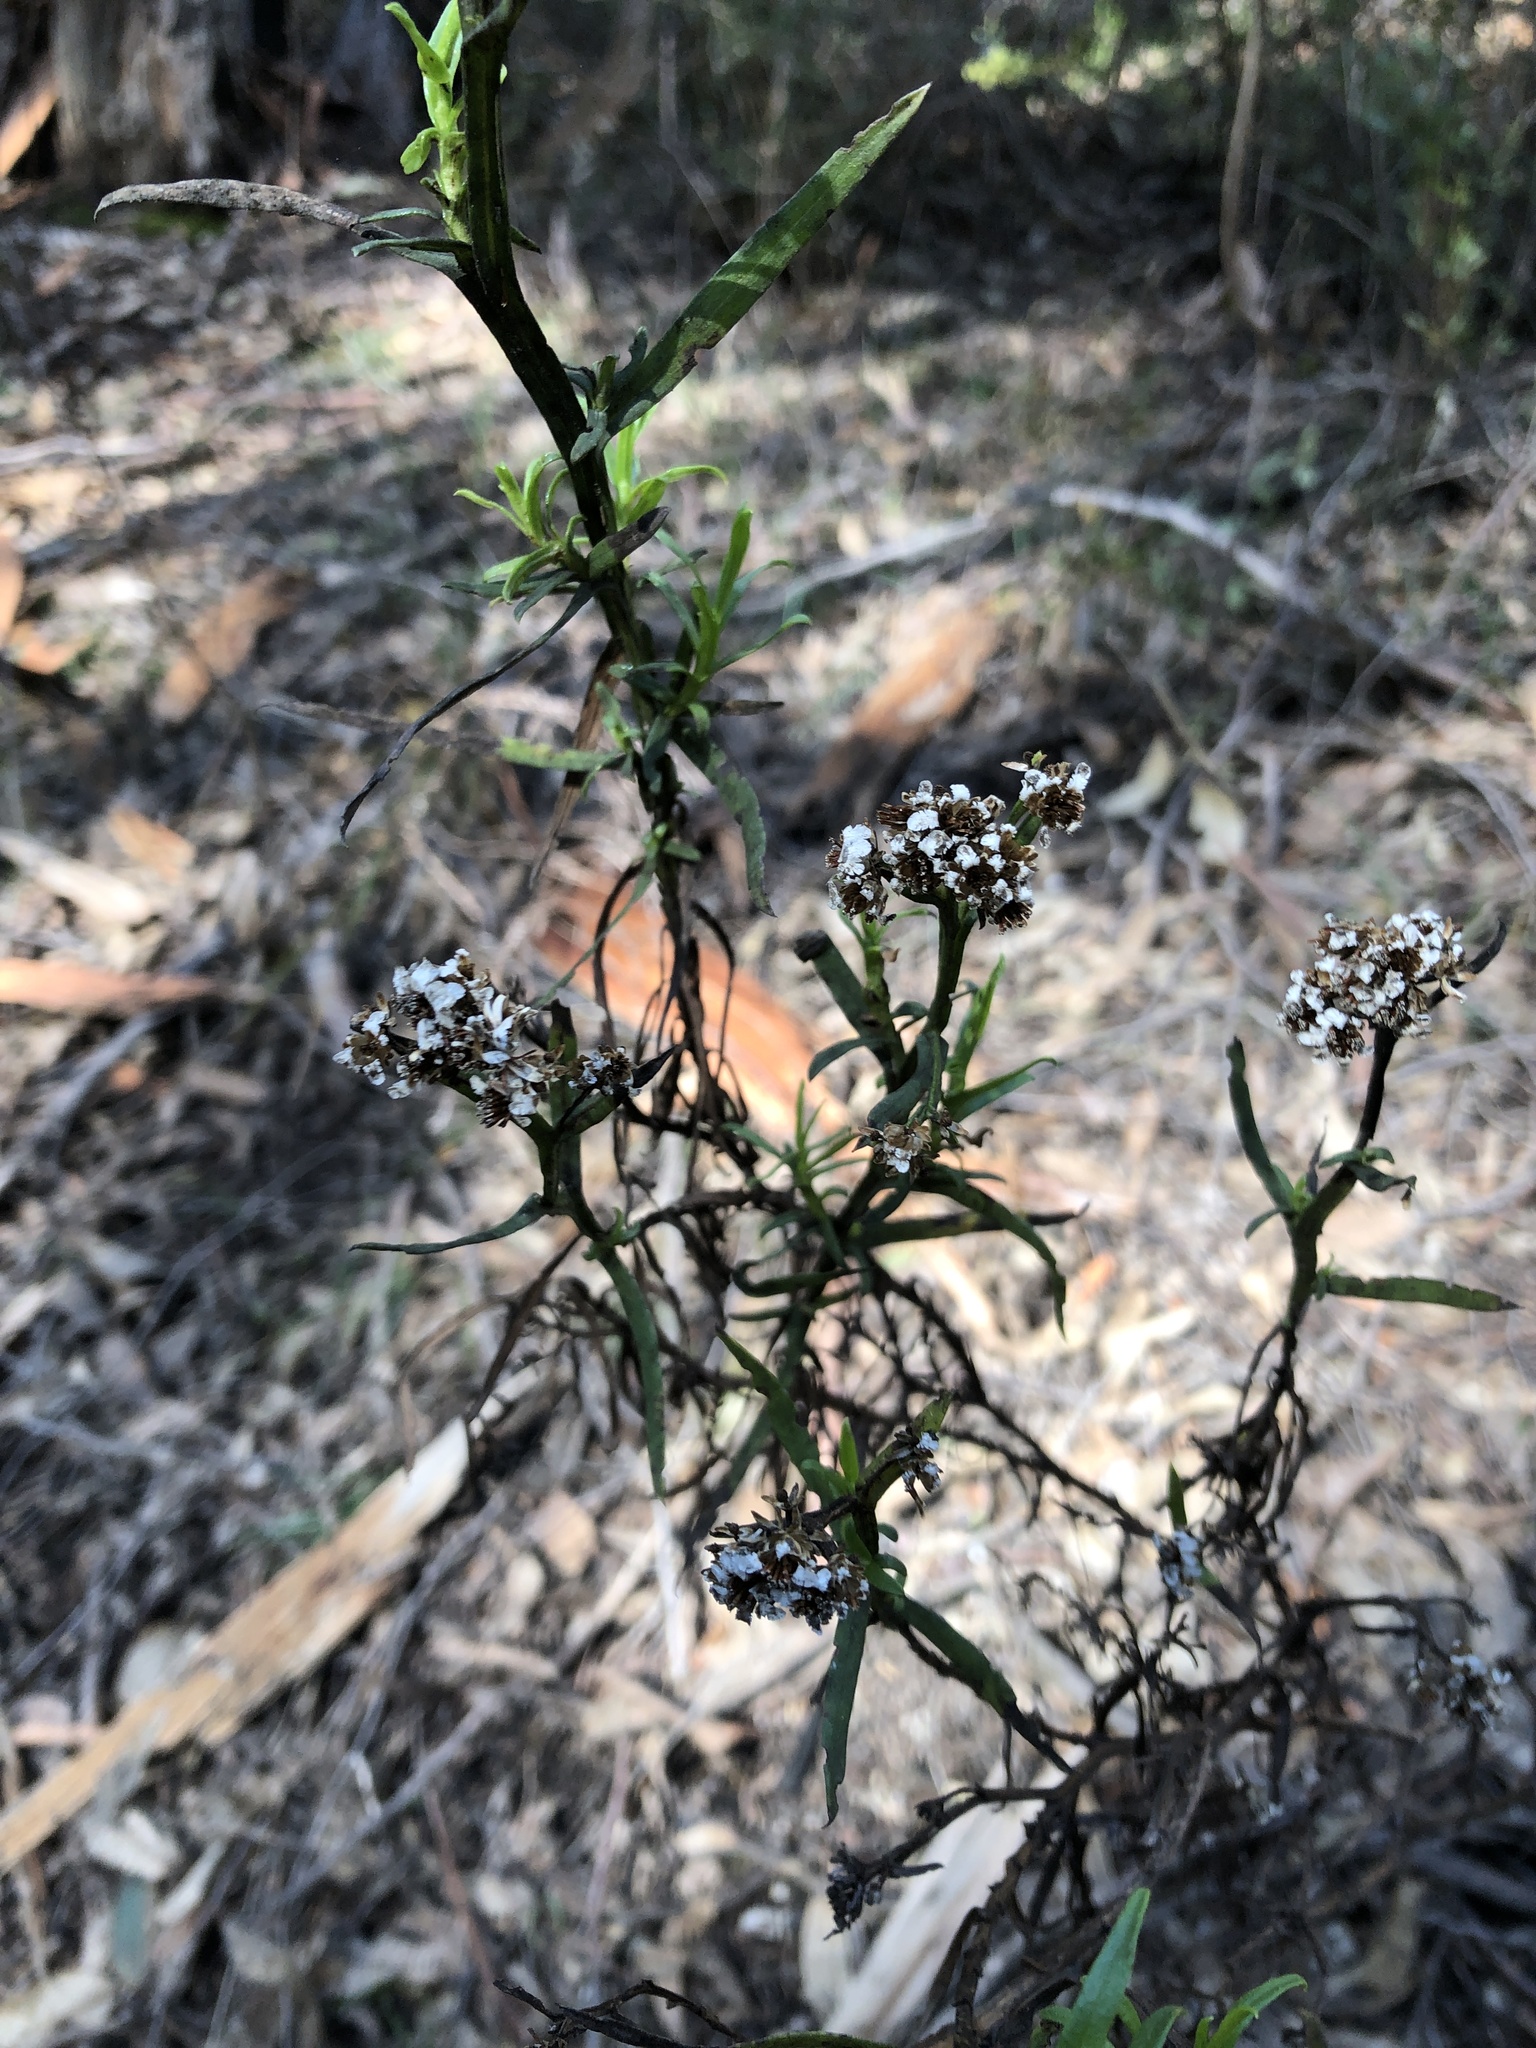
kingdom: Plantae
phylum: Tracheophyta
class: Magnoliopsida
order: Asterales
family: Asteraceae
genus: Ixodia
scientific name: Ixodia achillaeoides
